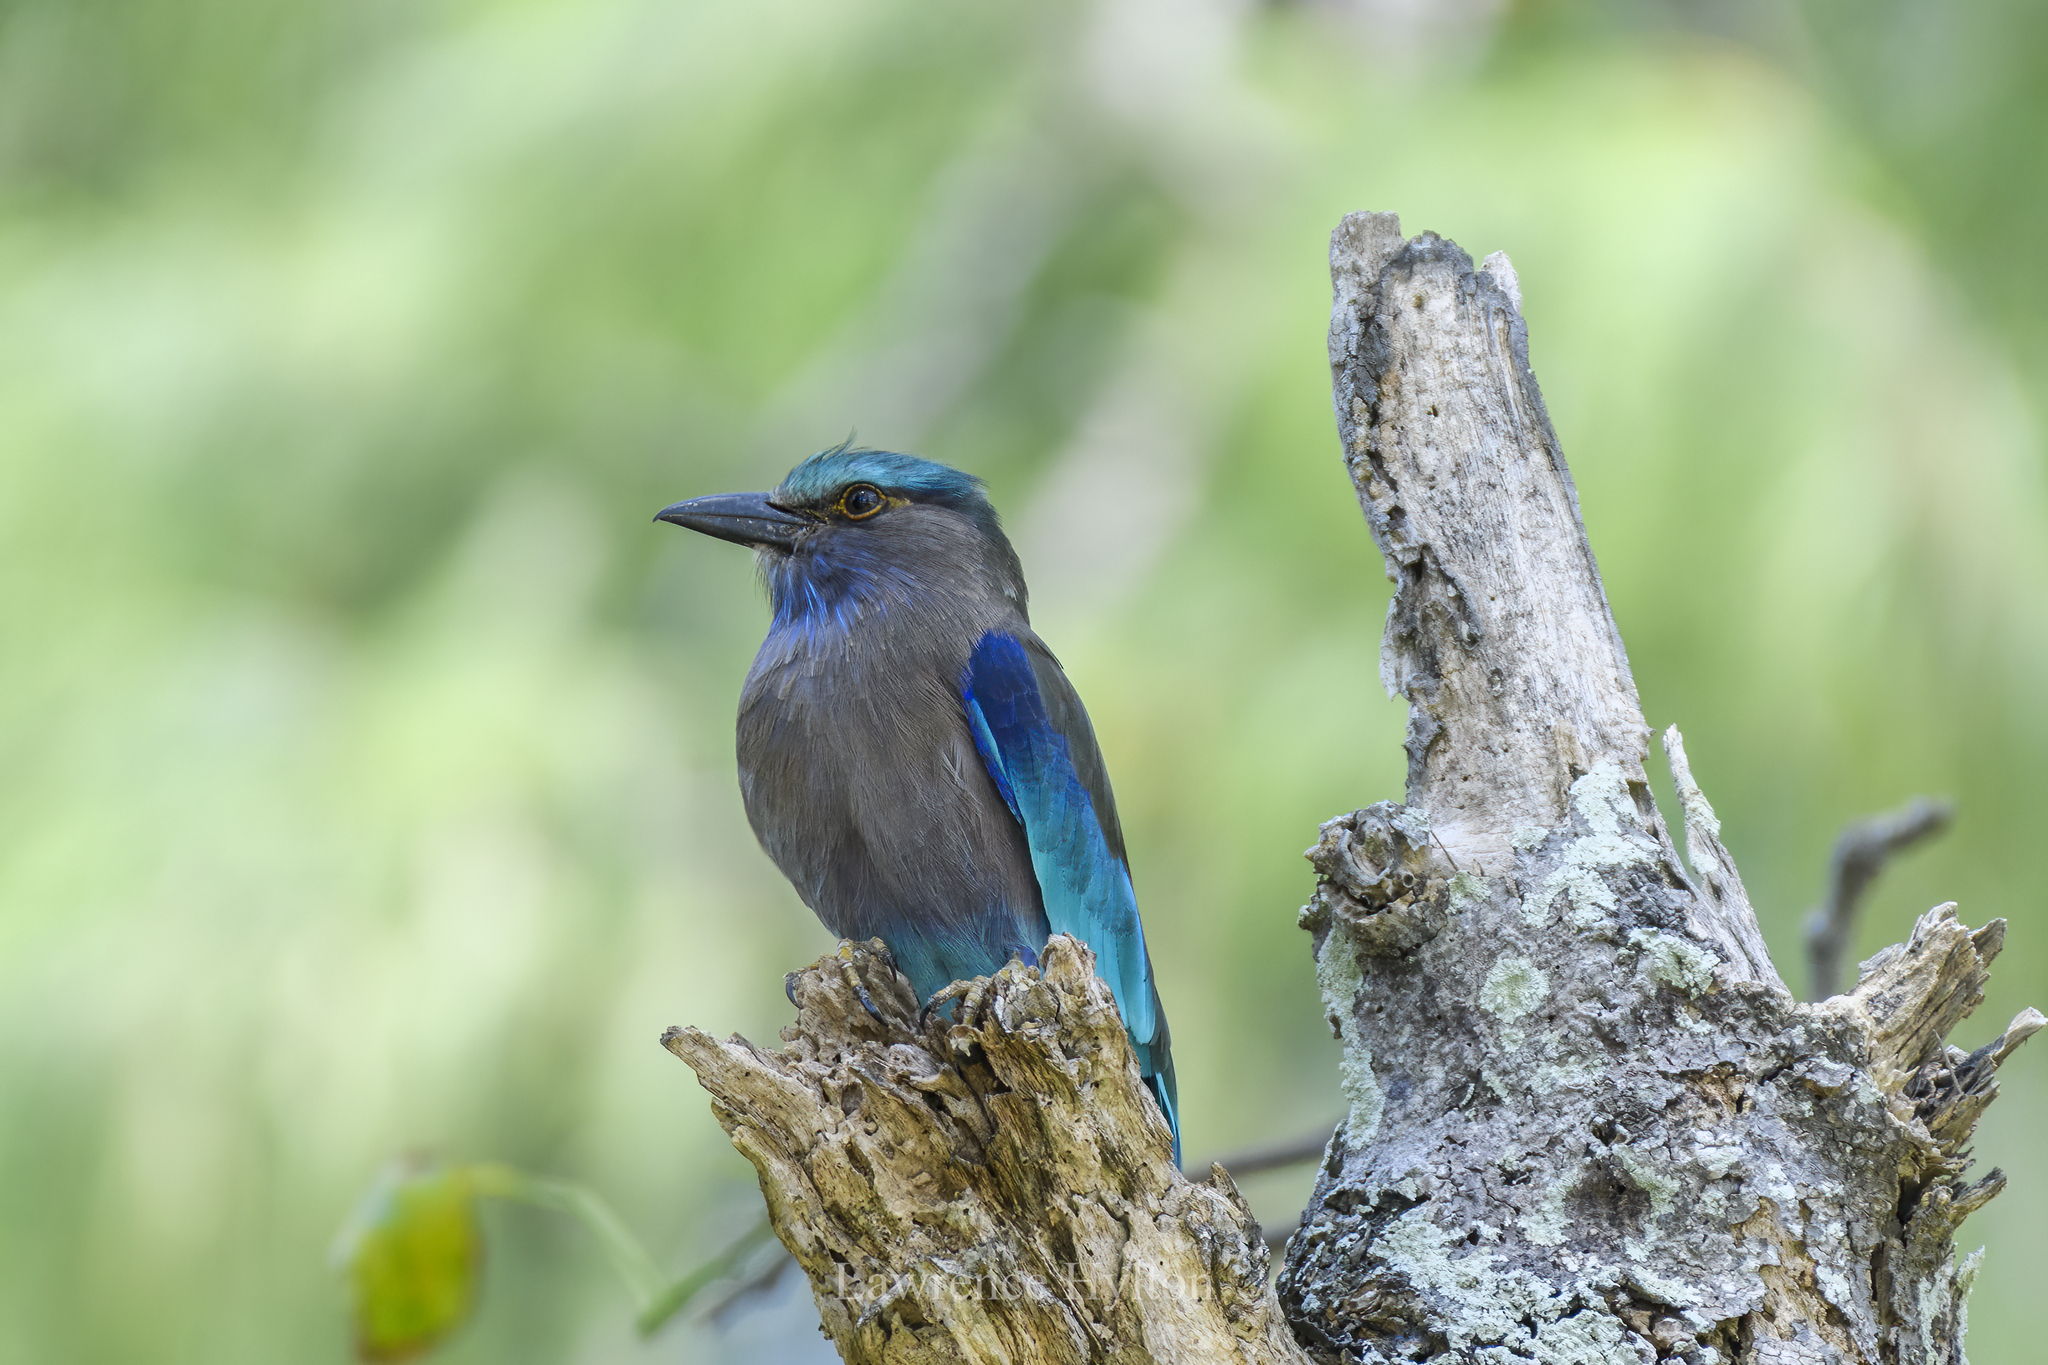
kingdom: Animalia
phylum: Chordata
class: Aves
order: Coraciiformes
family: Coraciidae
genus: Coracias
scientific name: Coracias affinis
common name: Indochinese roller
